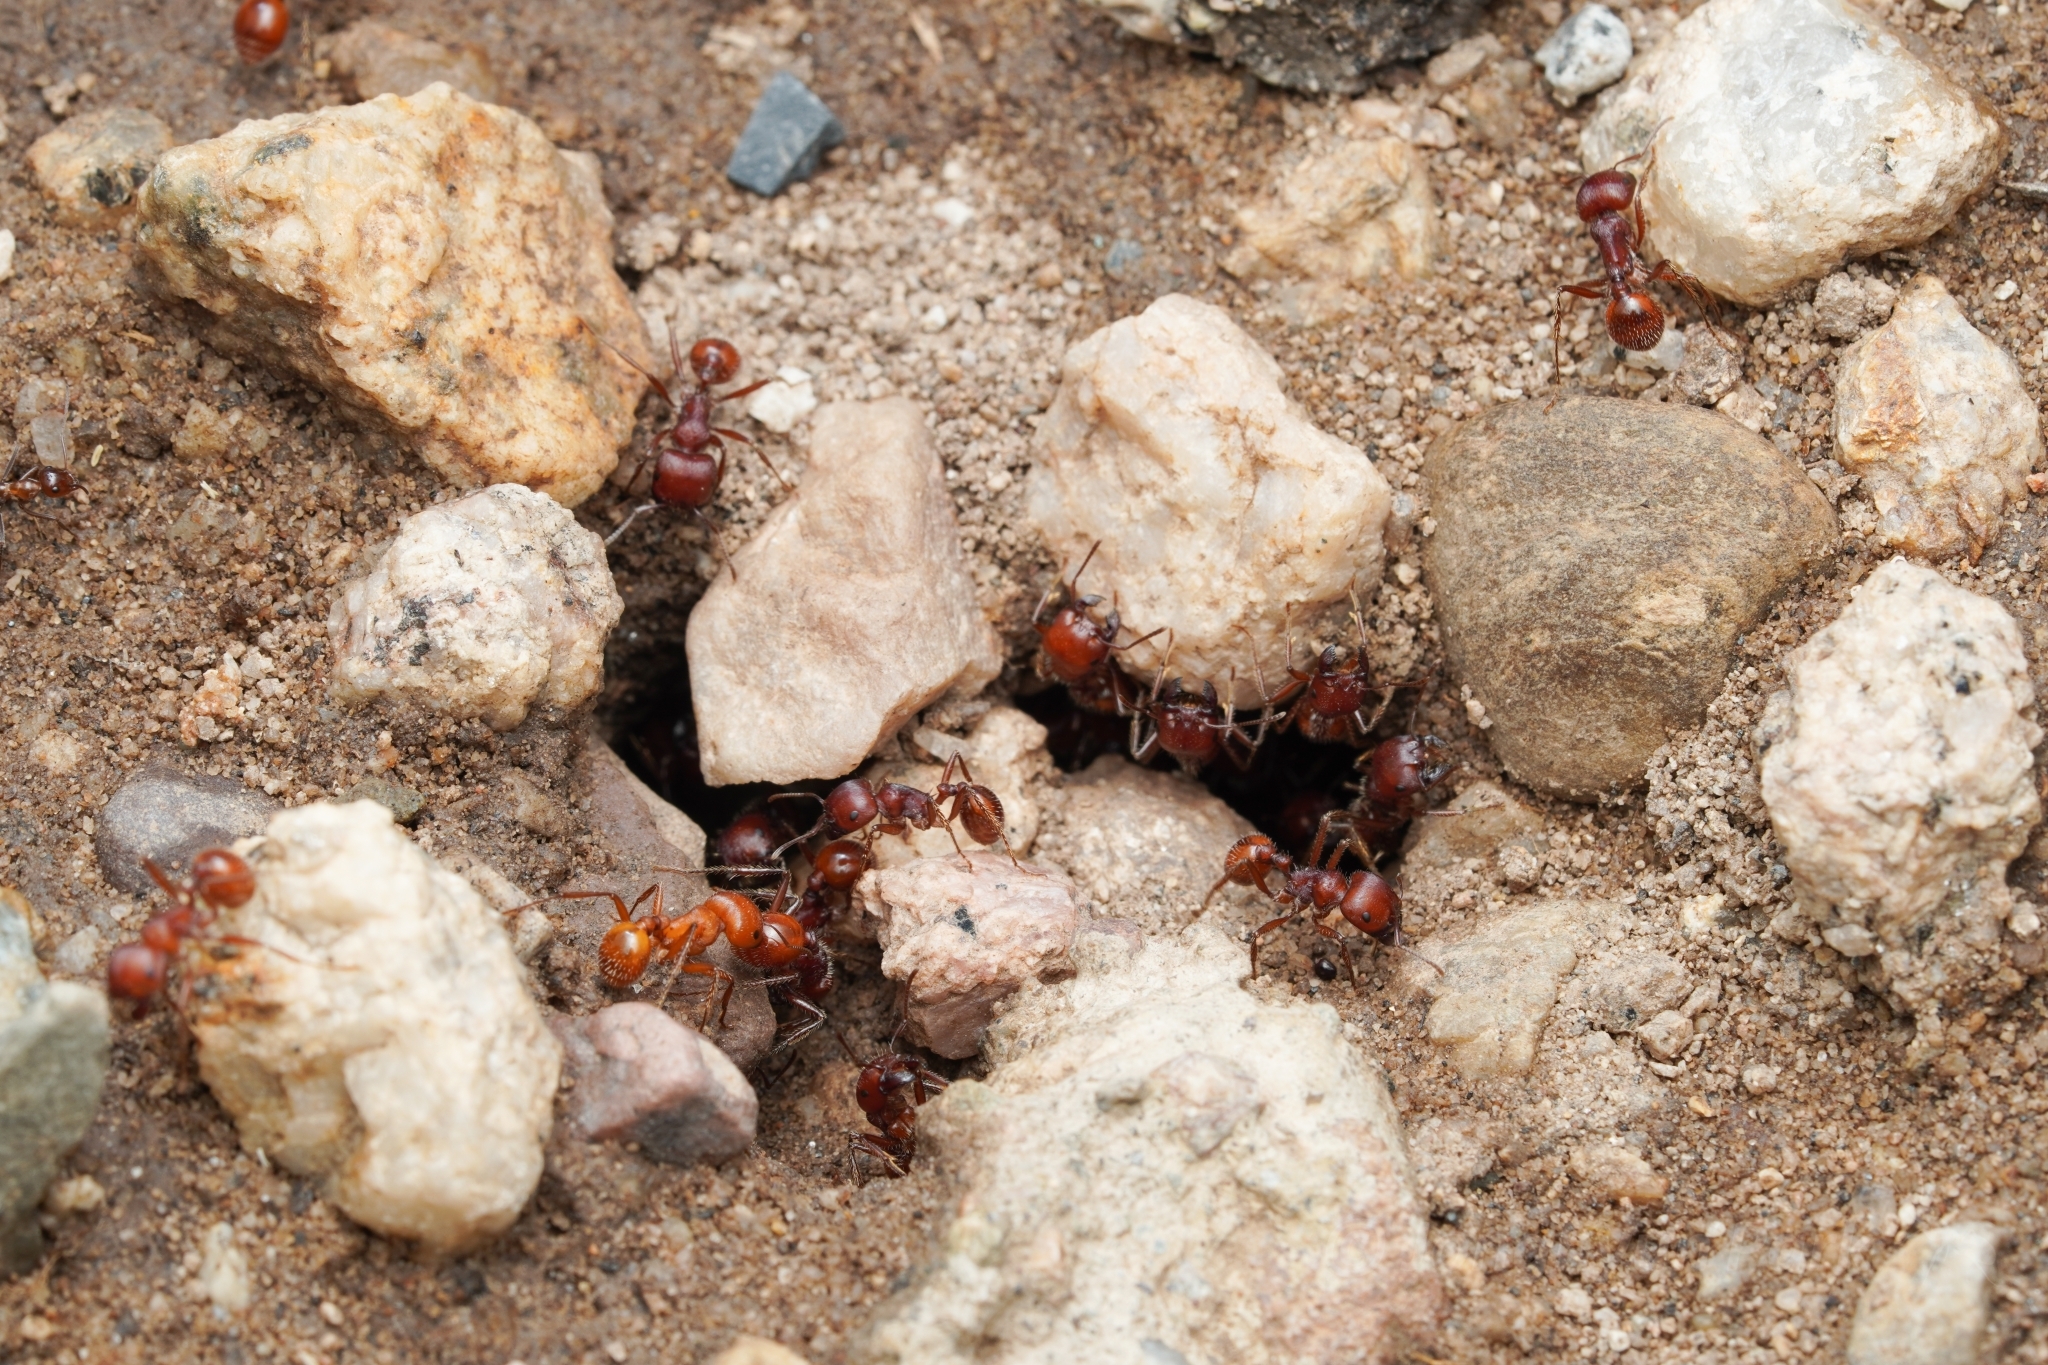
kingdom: Animalia
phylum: Arthropoda
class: Insecta
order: Hymenoptera
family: Formicidae
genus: Pogonomyrmex
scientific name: Pogonomyrmex barbatus
